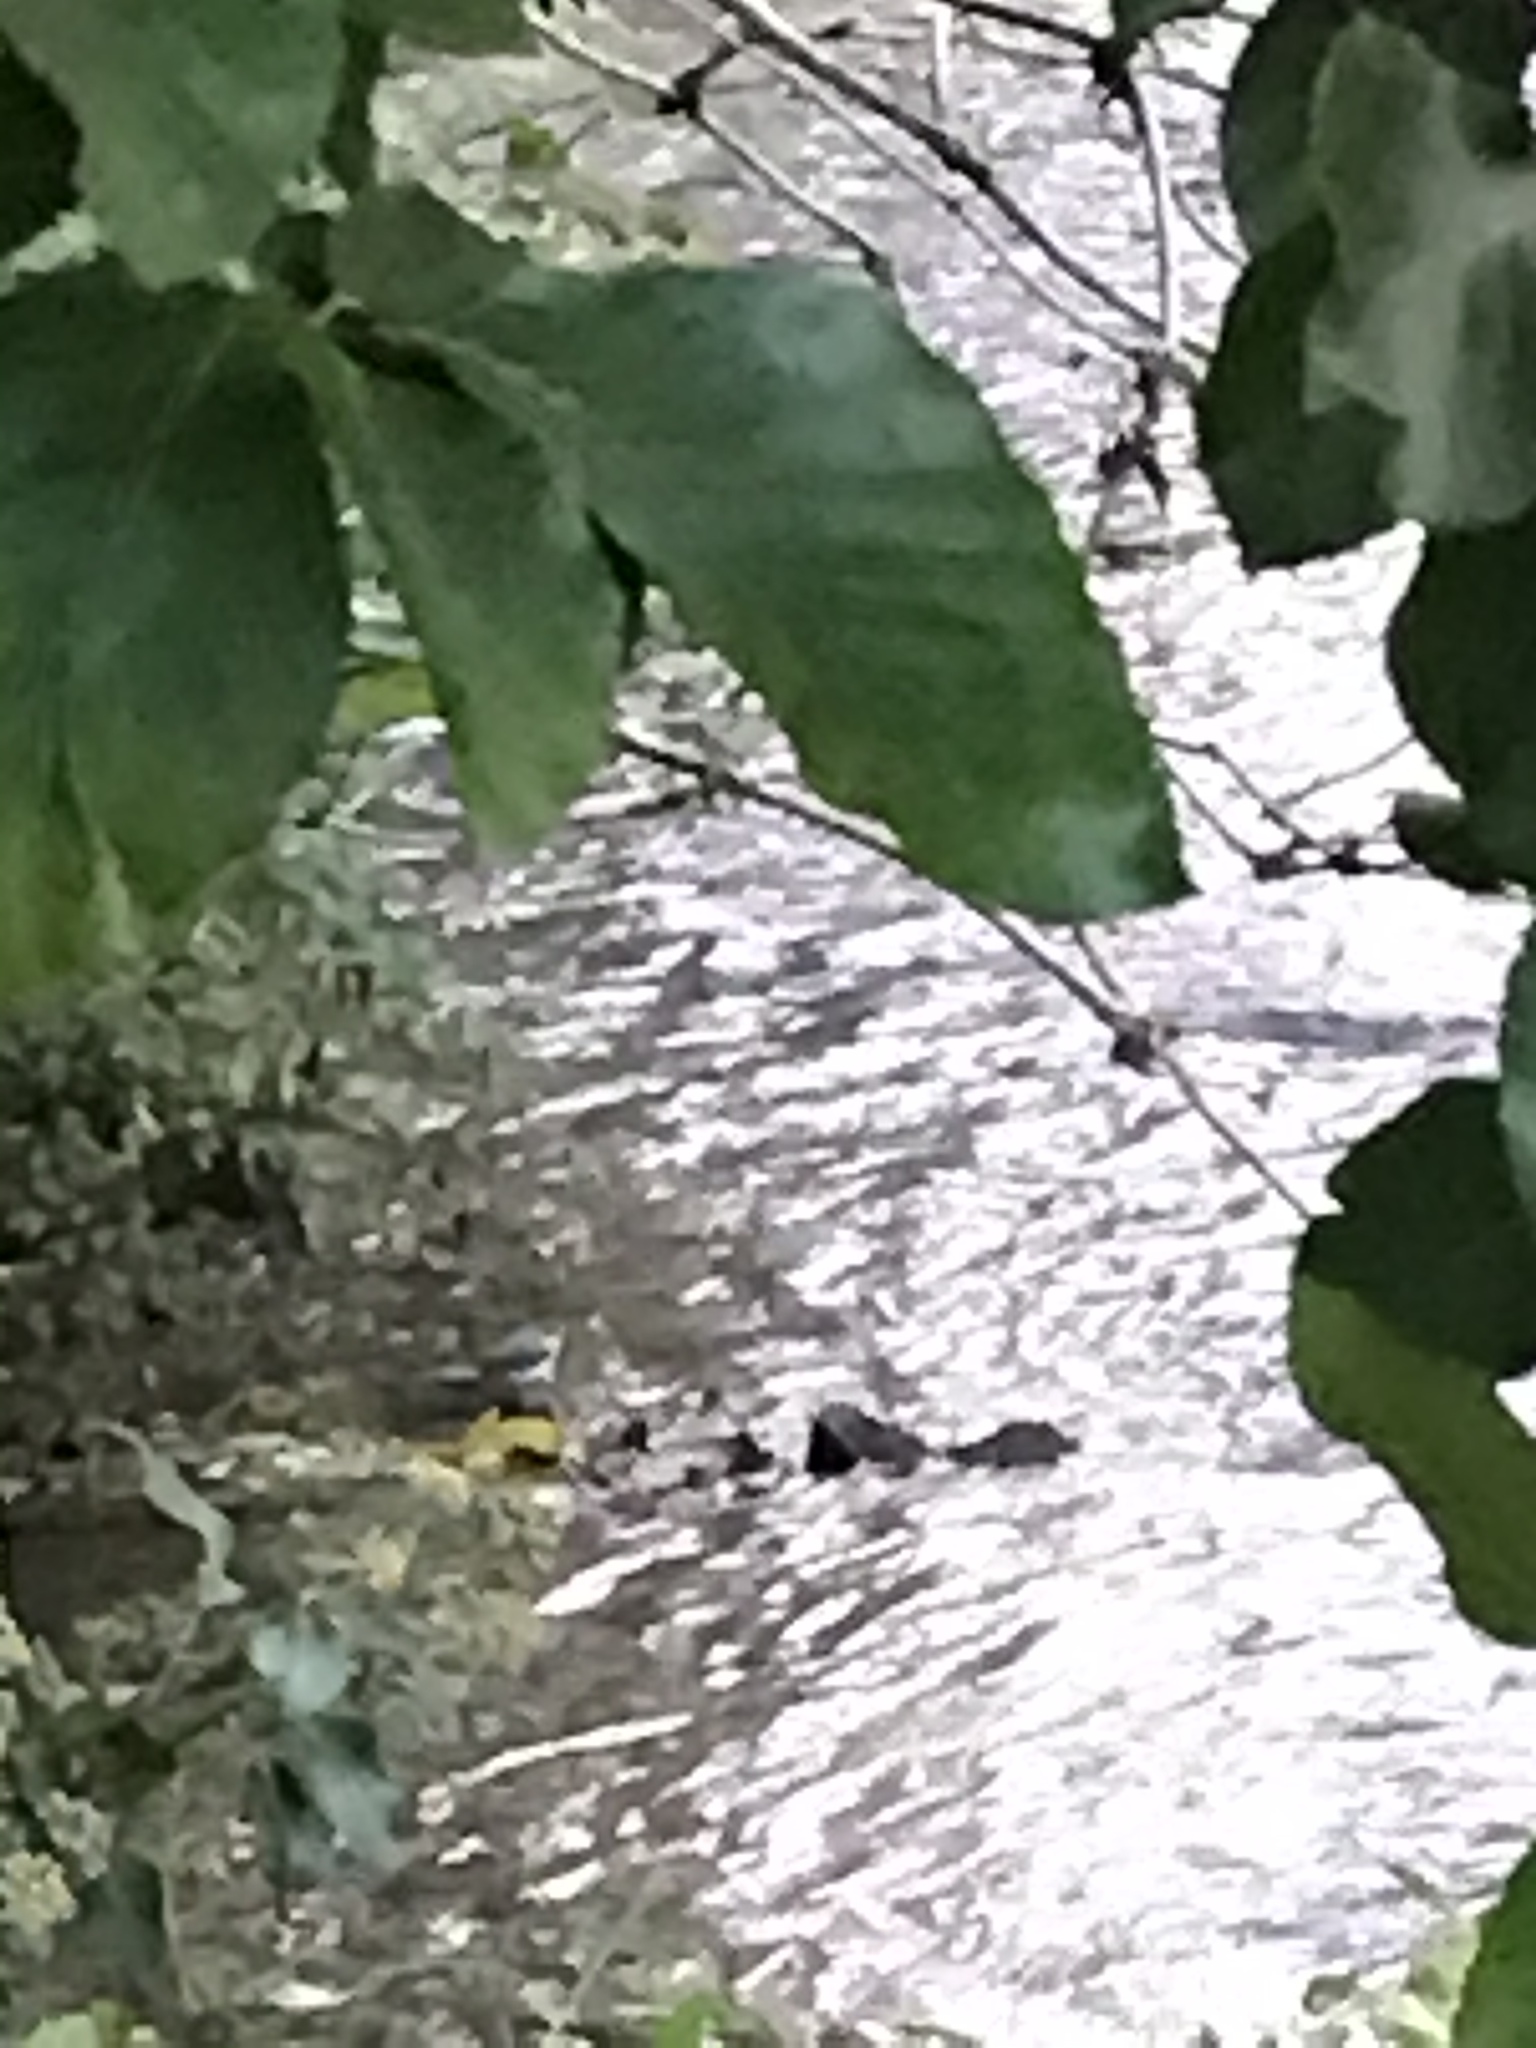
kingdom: Animalia
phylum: Chordata
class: Aves
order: Passeriformes
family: Motacillidae
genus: Motacilla
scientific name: Motacilla cinerea
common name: Grey wagtail
